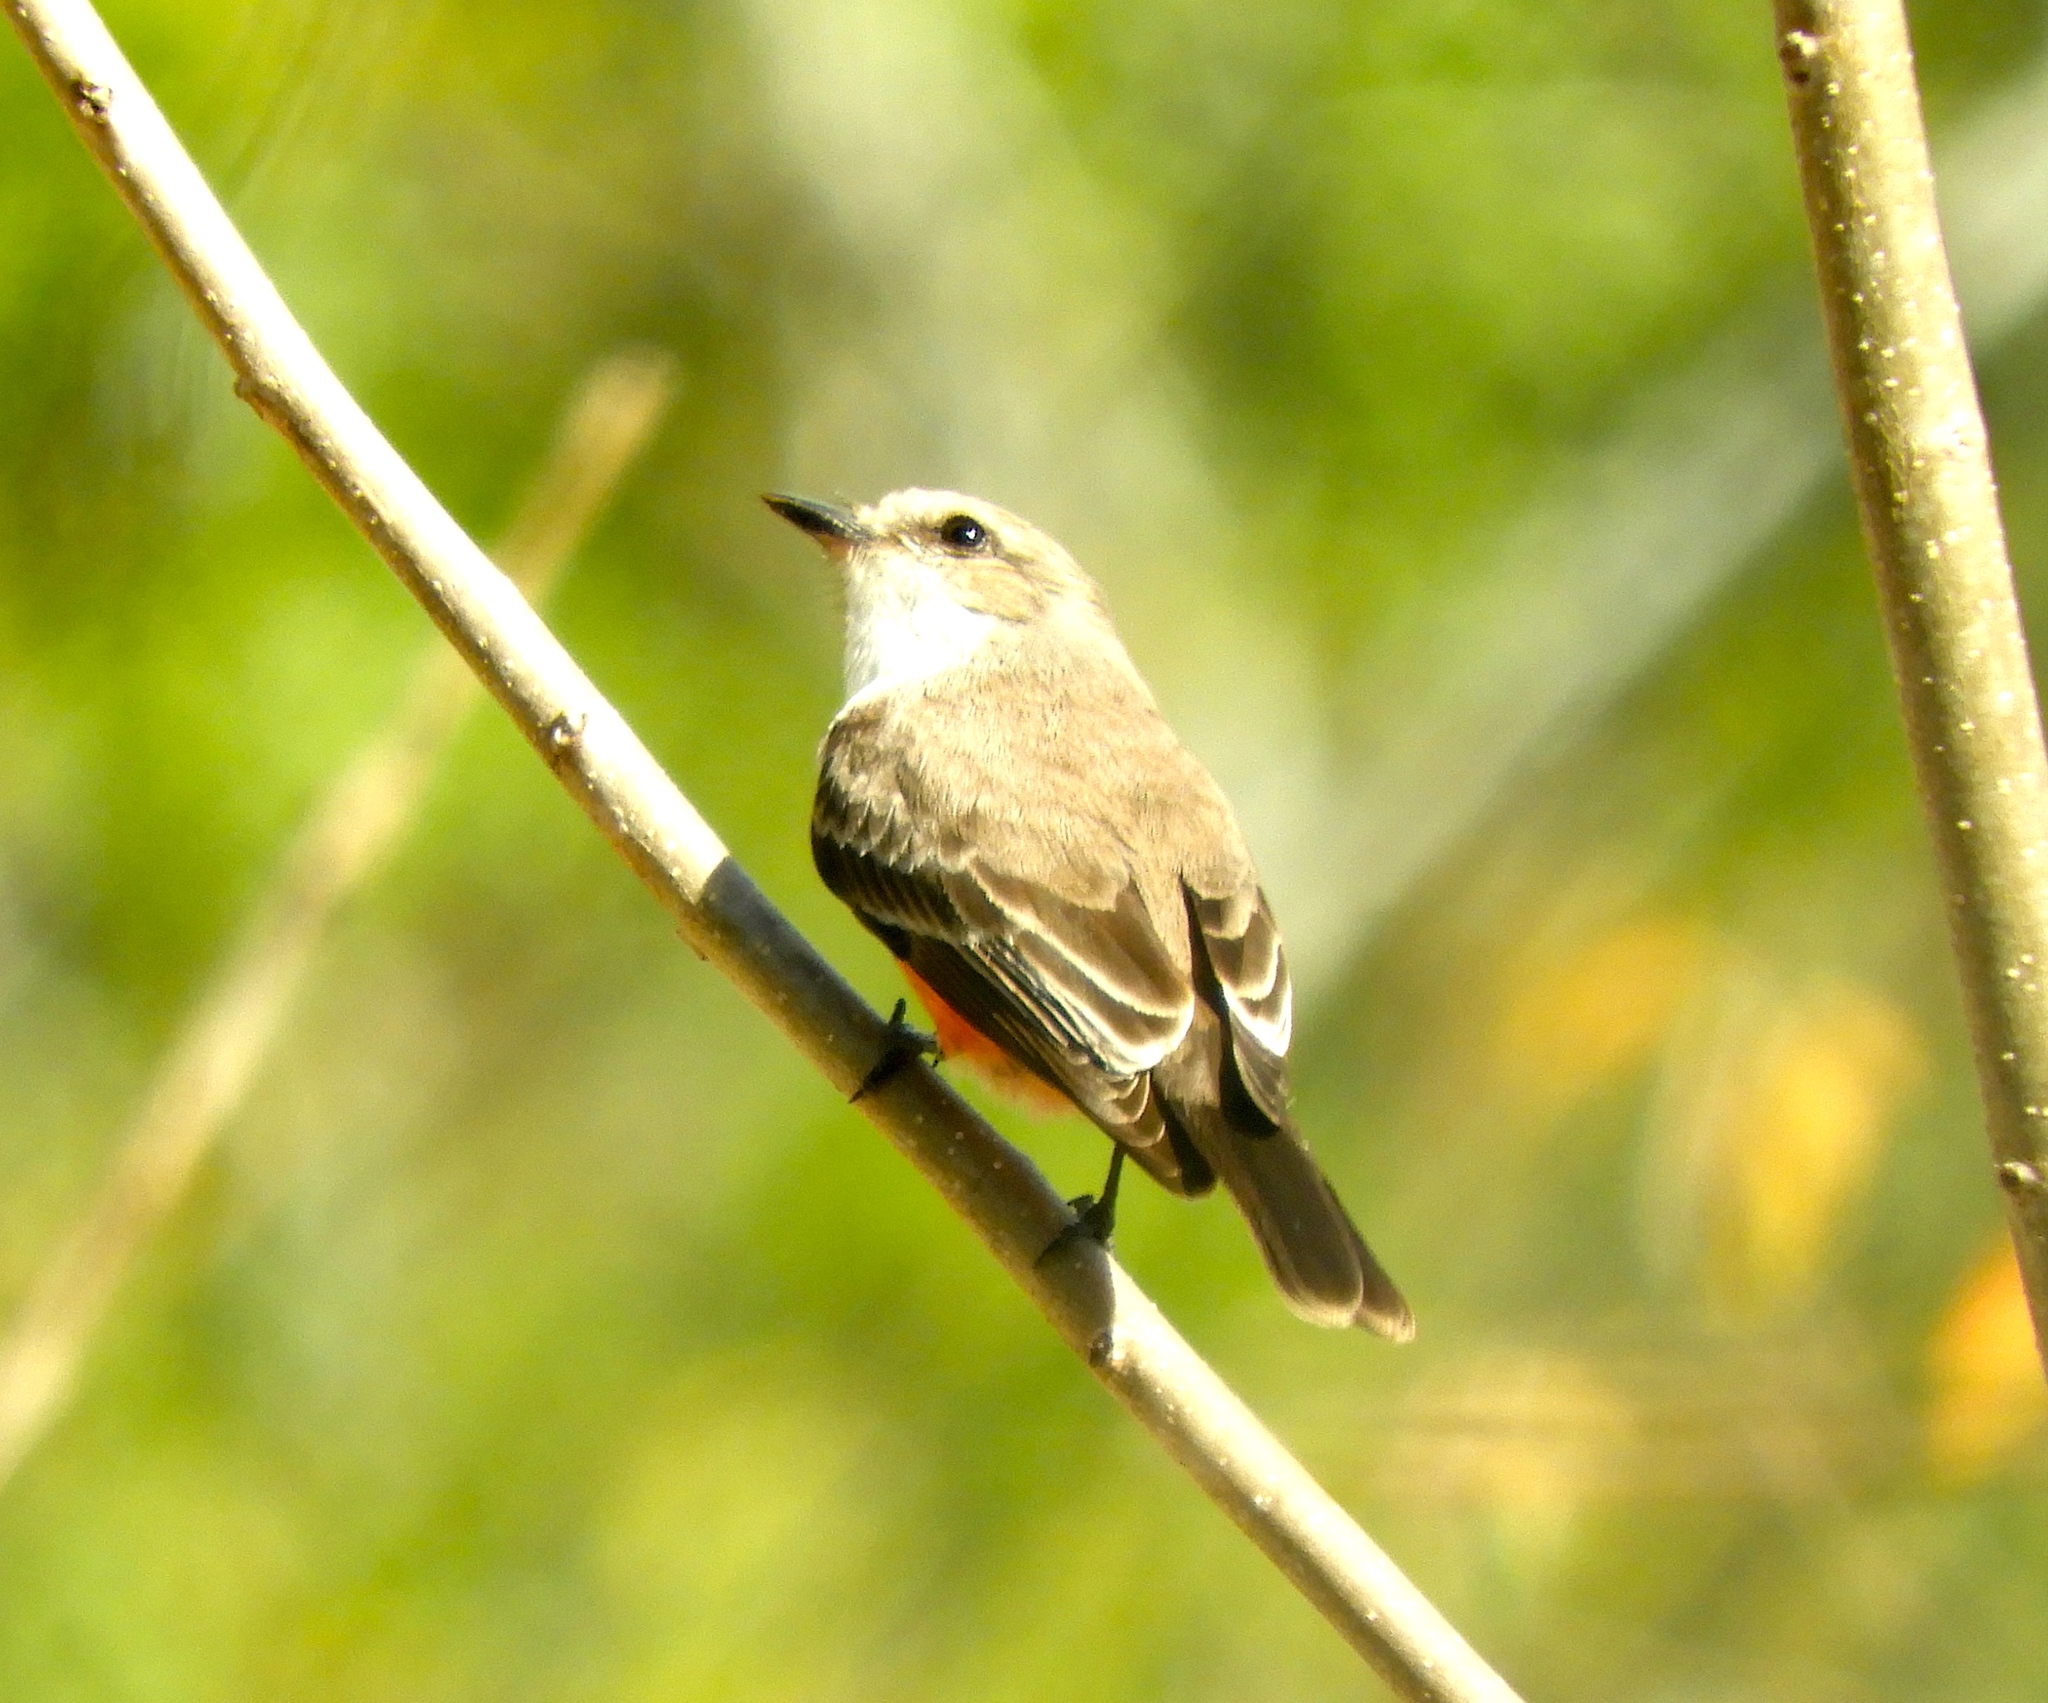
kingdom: Animalia
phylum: Chordata
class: Aves
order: Passeriformes
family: Tyrannidae
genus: Pyrocephalus
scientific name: Pyrocephalus rubinus
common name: Vermilion flycatcher
